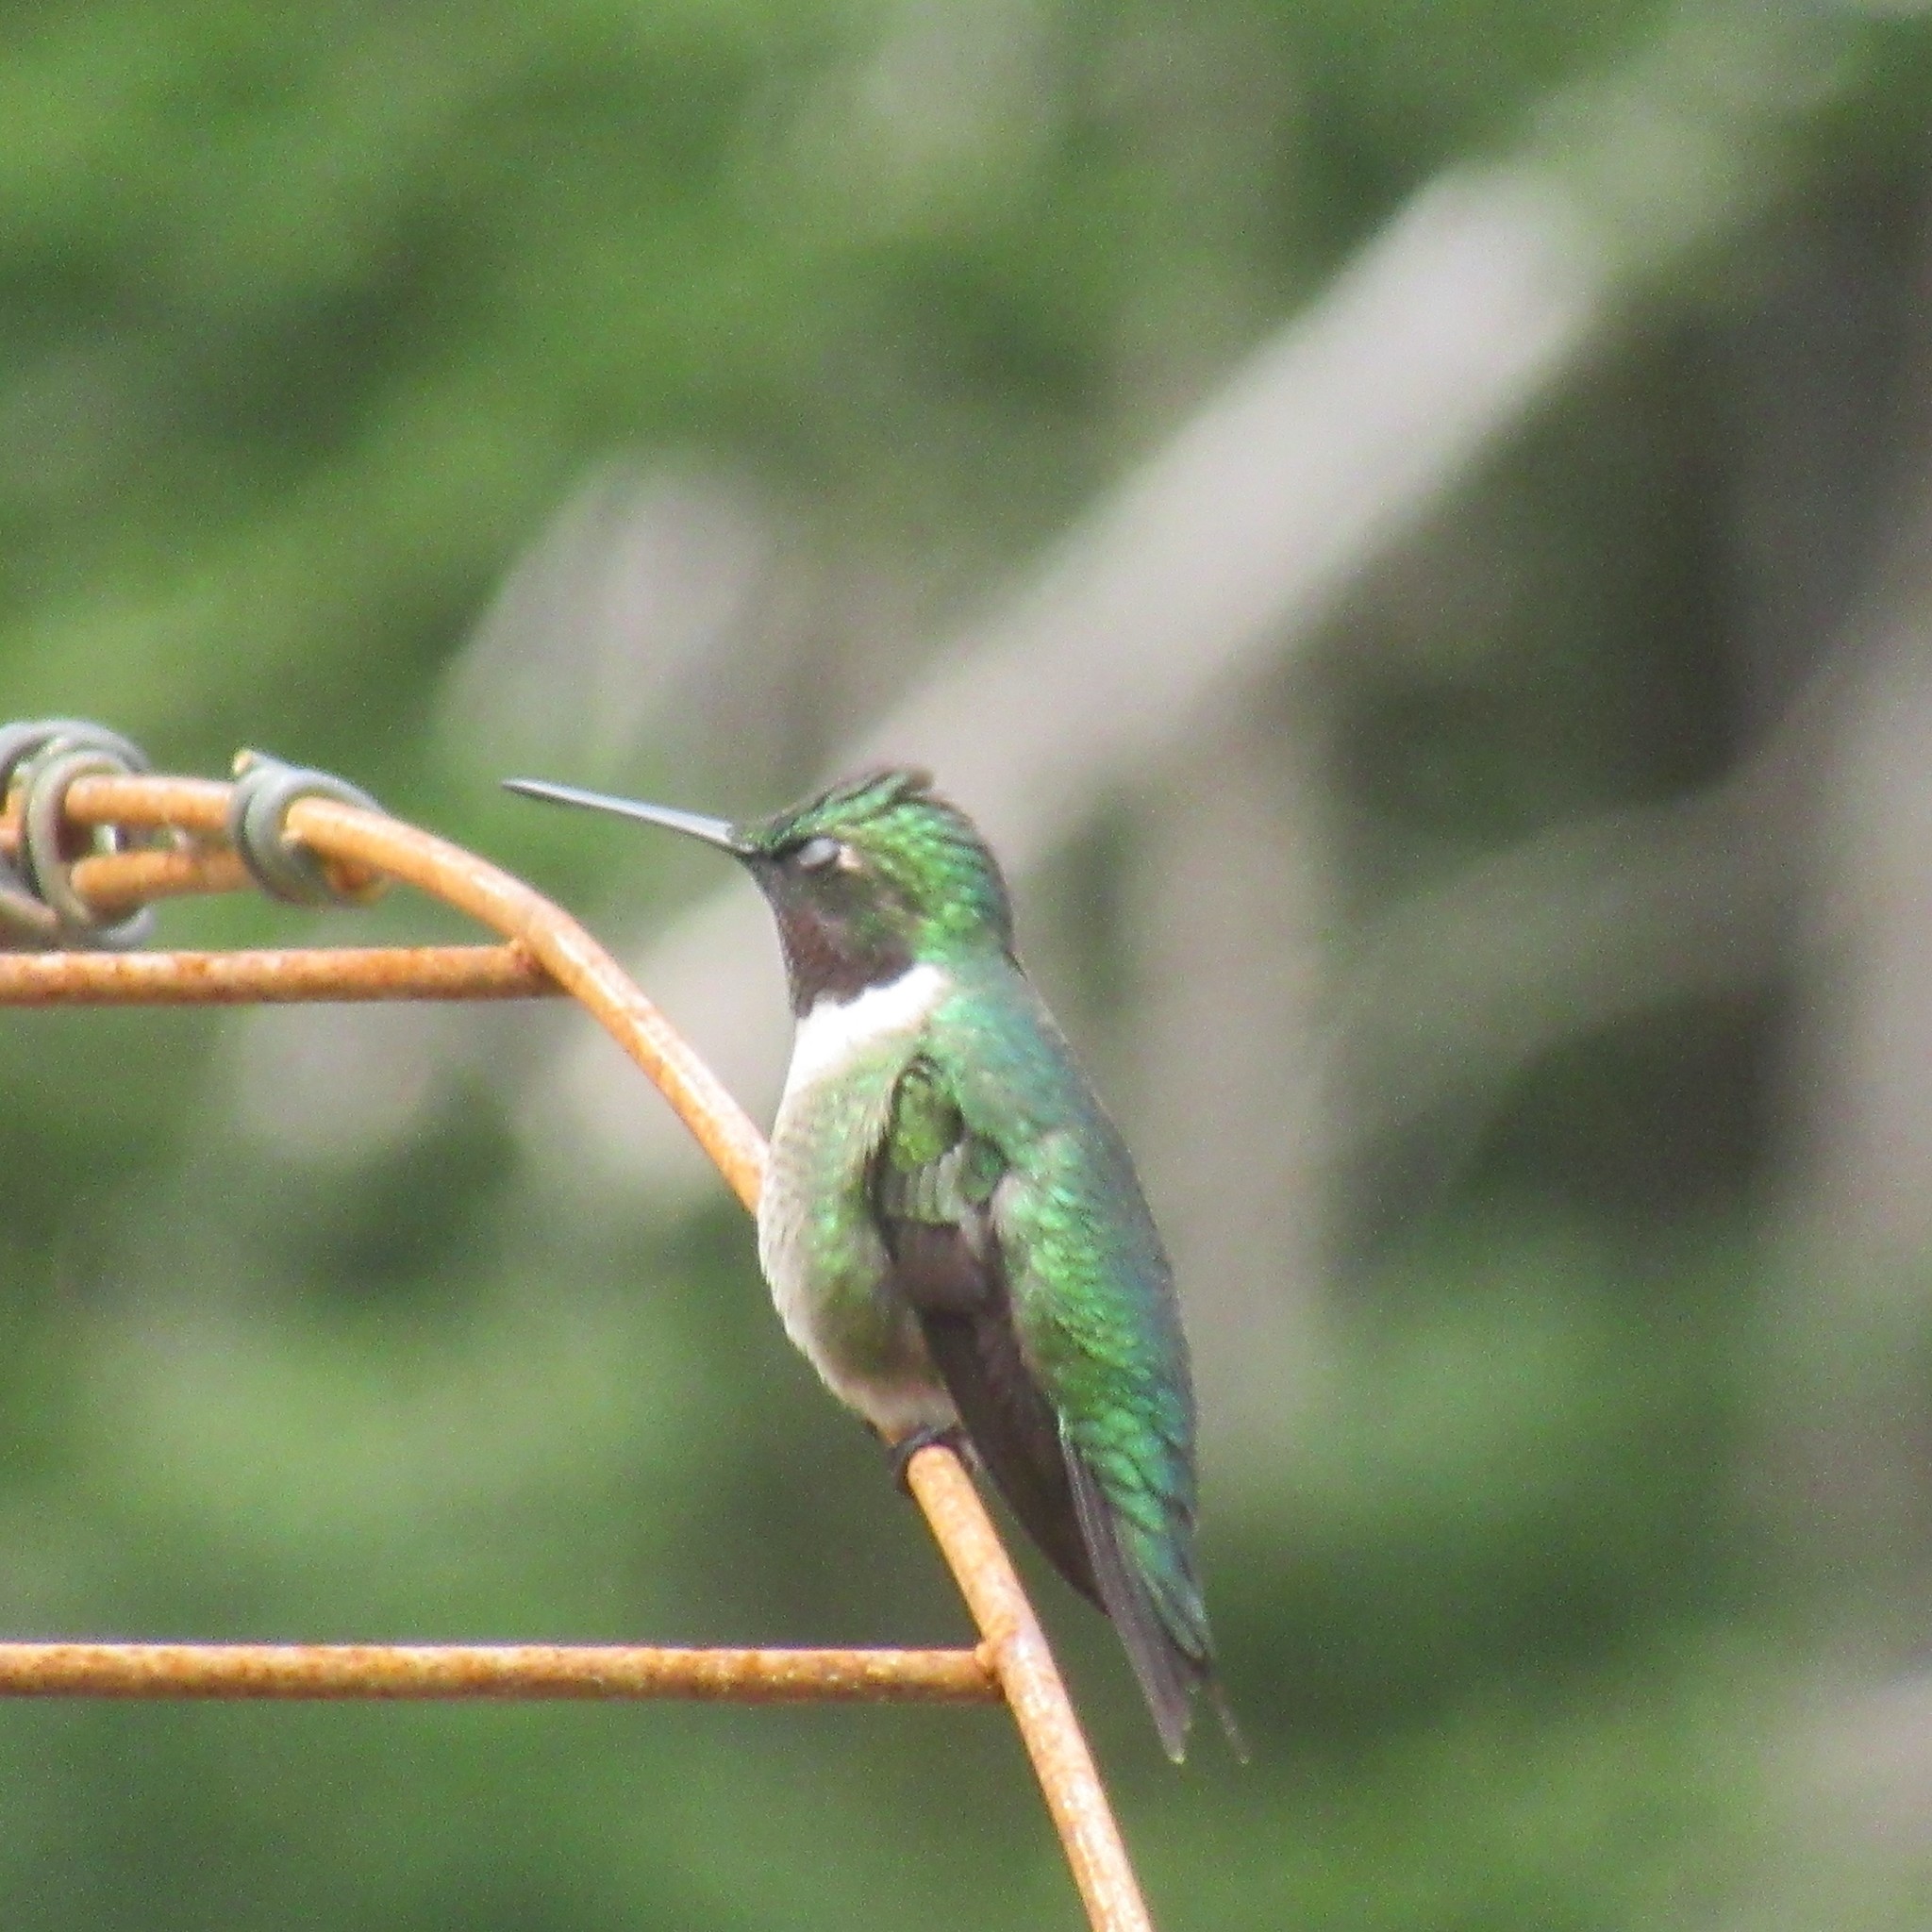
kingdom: Animalia
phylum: Chordata
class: Aves
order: Apodiformes
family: Trochilidae
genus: Archilochus
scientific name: Archilochus colubris
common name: Ruby-throated hummingbird
